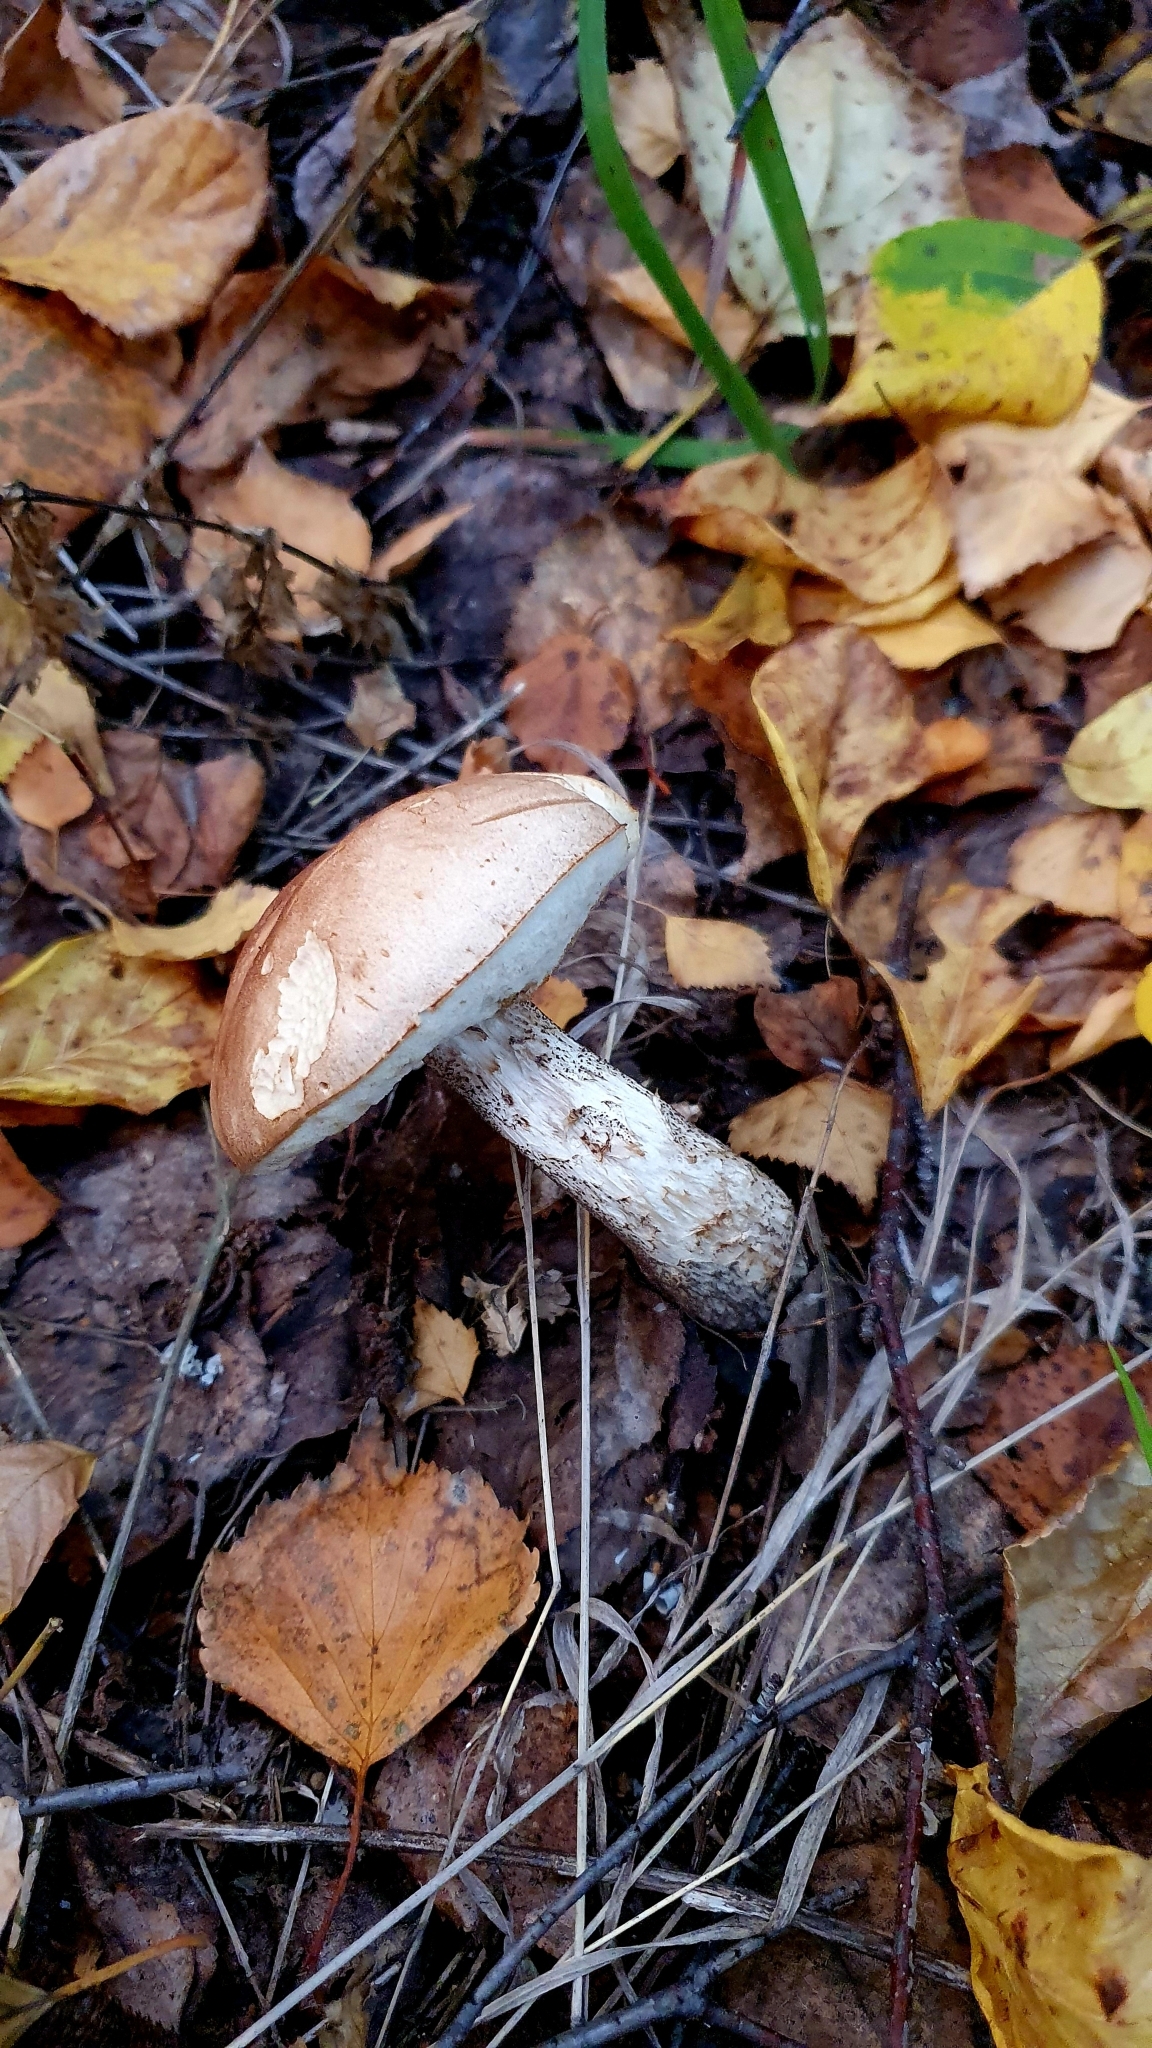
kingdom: Fungi
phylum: Basidiomycota
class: Agaricomycetes
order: Boletales
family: Boletaceae
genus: Leccinum
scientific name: Leccinum scabrum
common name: Blushing bolete
